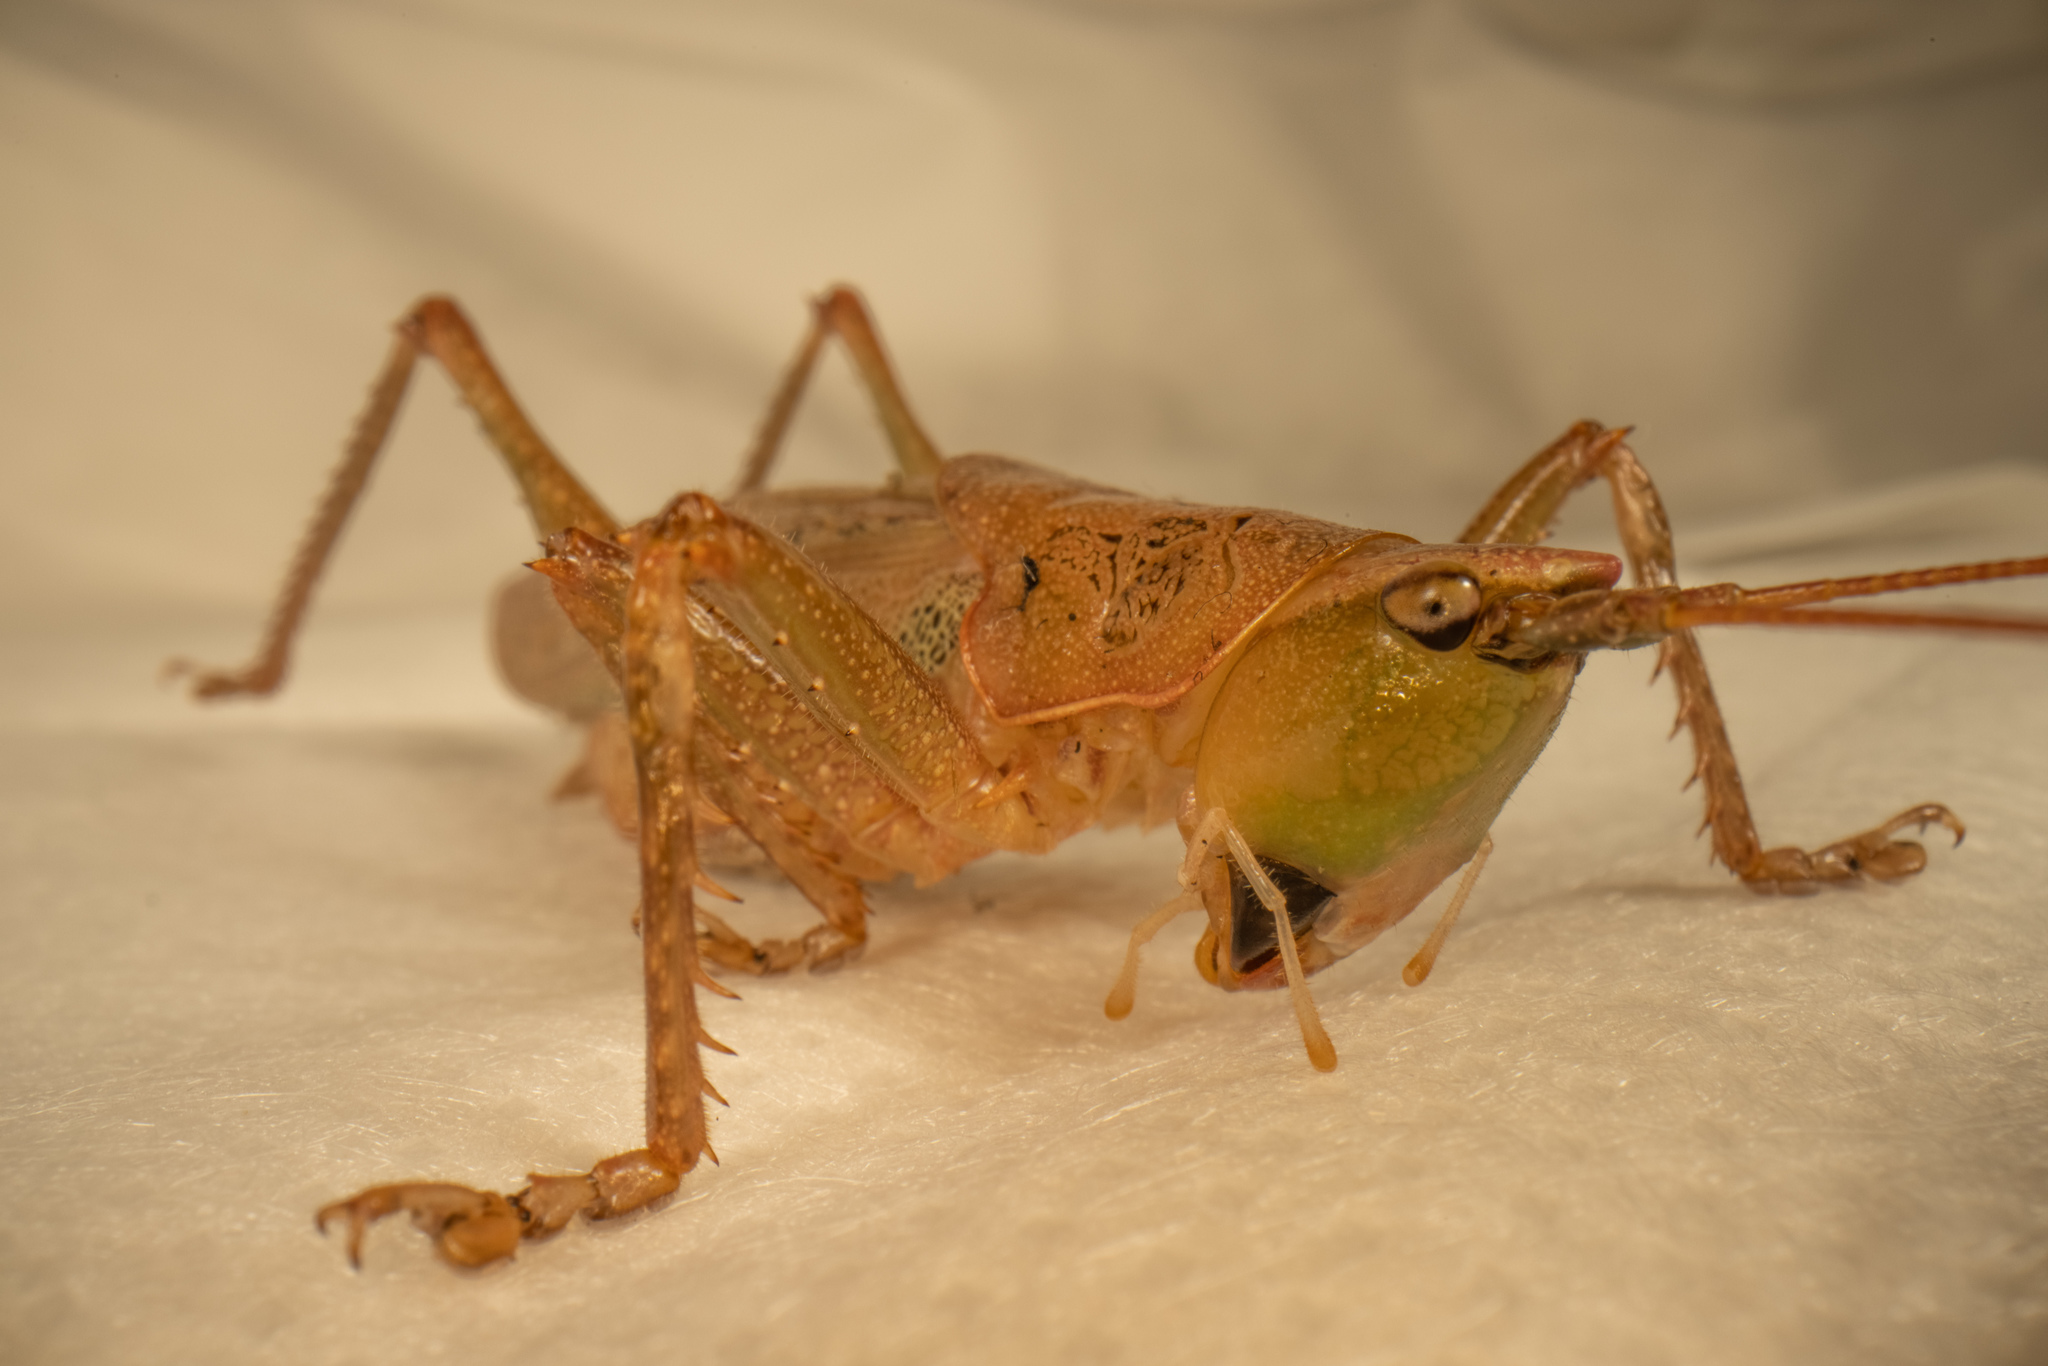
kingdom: Animalia
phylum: Arthropoda
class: Insecta
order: Orthoptera
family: Tettigoniidae
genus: Austrosalomona
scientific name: Austrosalomona falcata
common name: Olive-green coastal katydid
